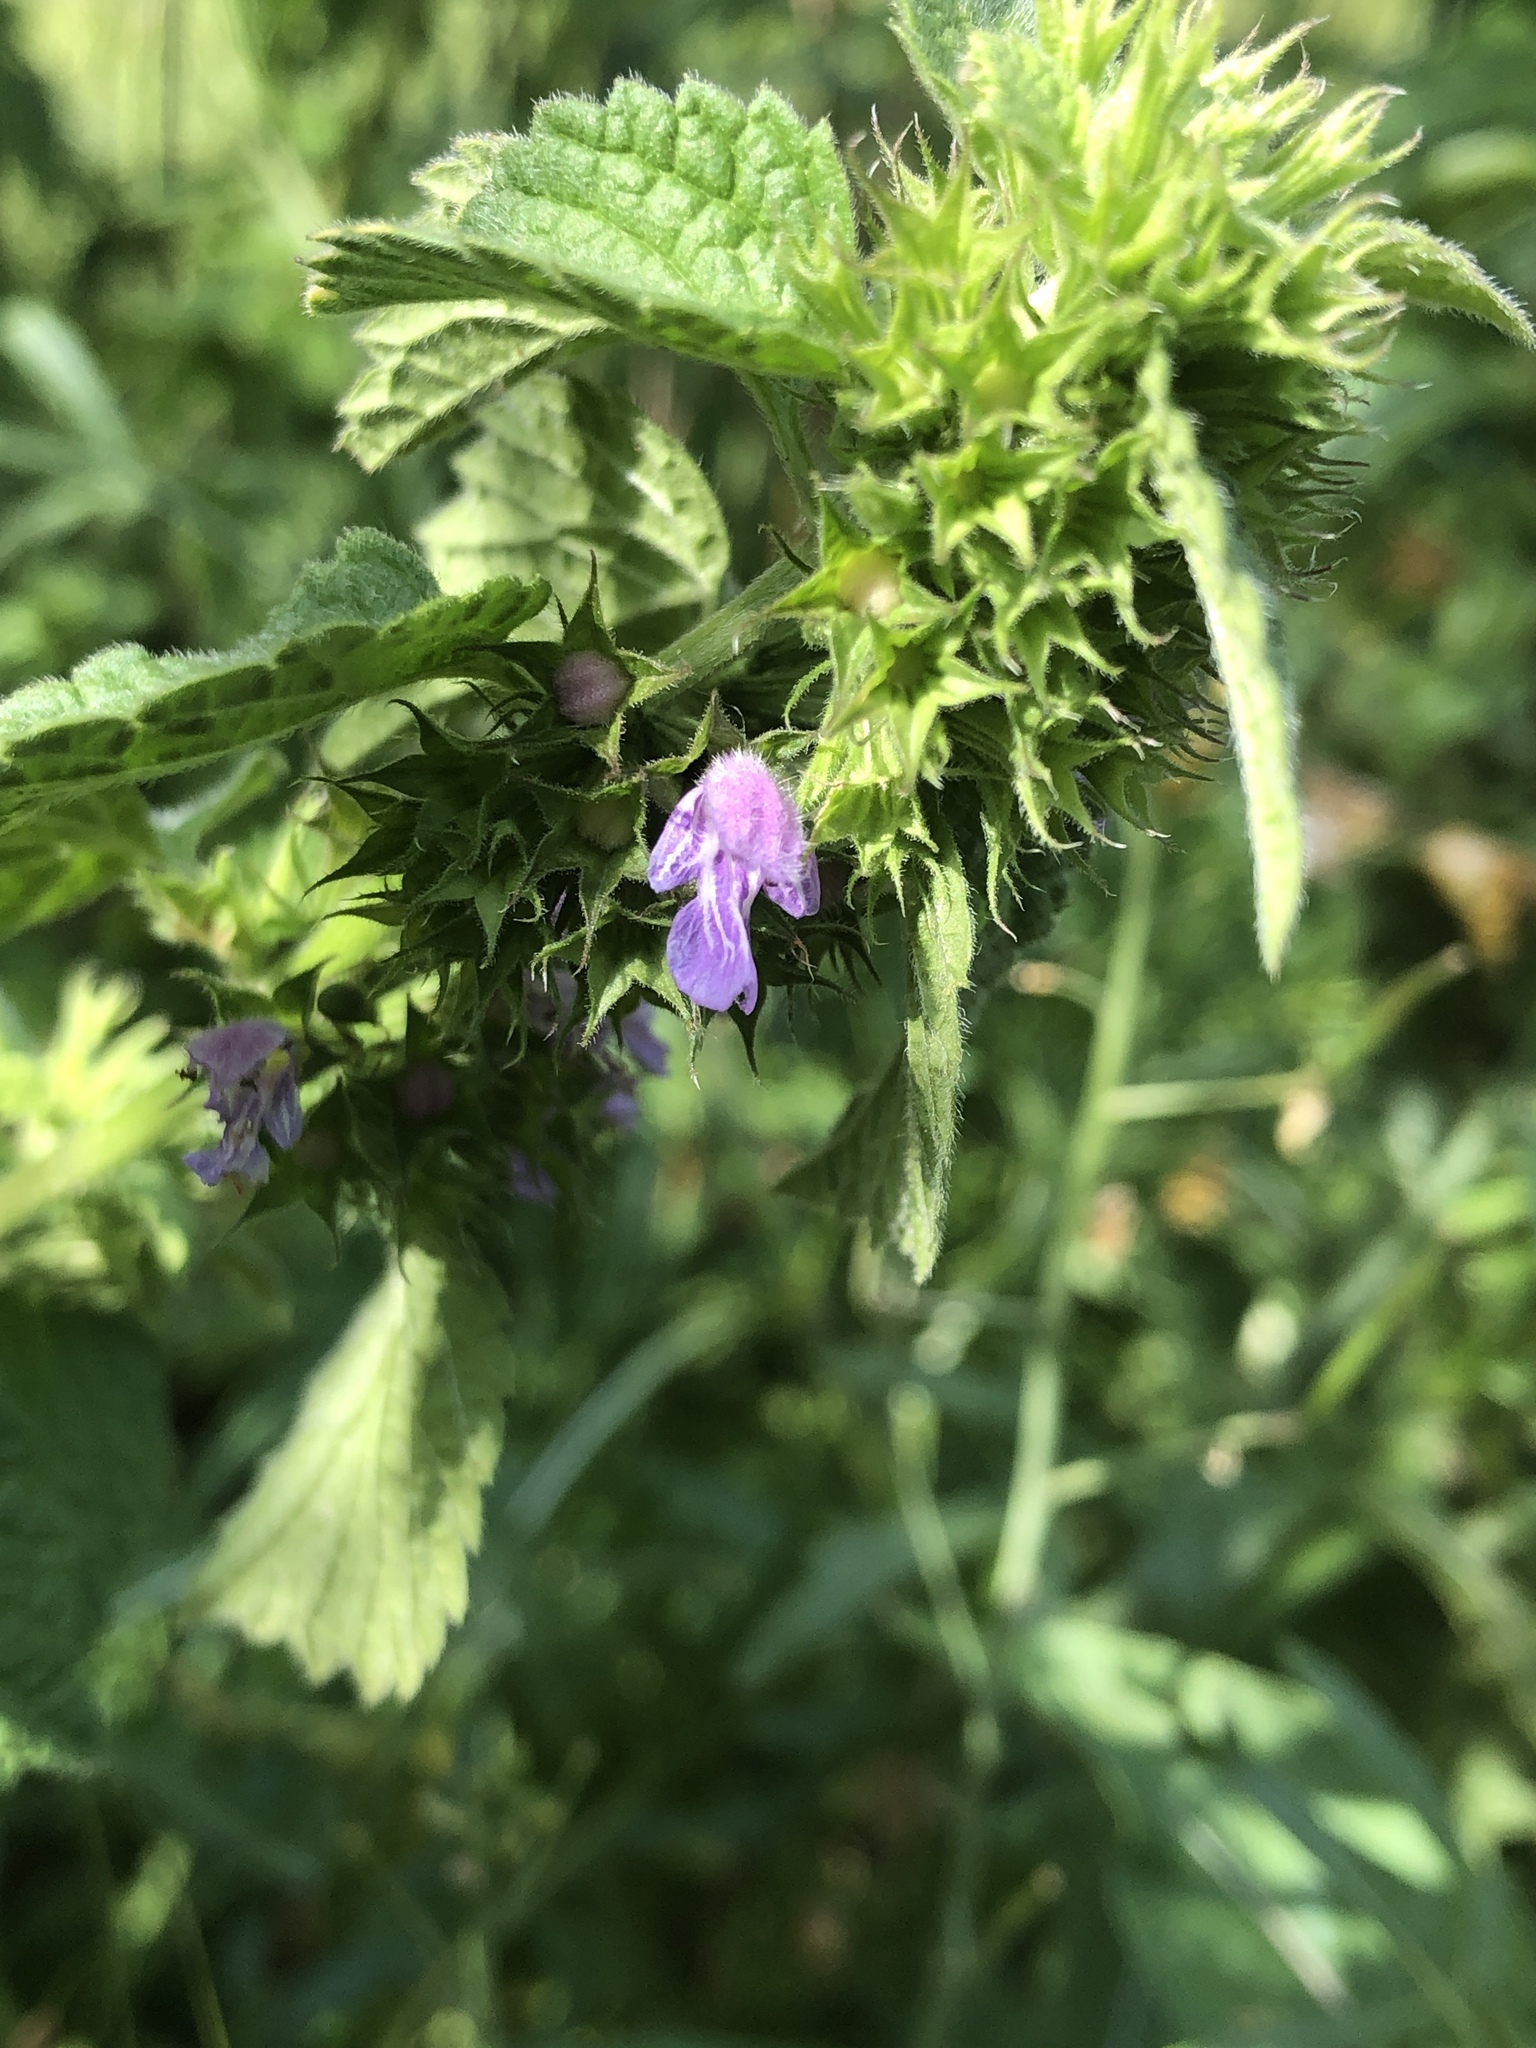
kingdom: Plantae
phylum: Tracheophyta
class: Magnoliopsida
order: Lamiales
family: Lamiaceae
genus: Ballota
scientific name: Ballota nigra
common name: Black horehound
